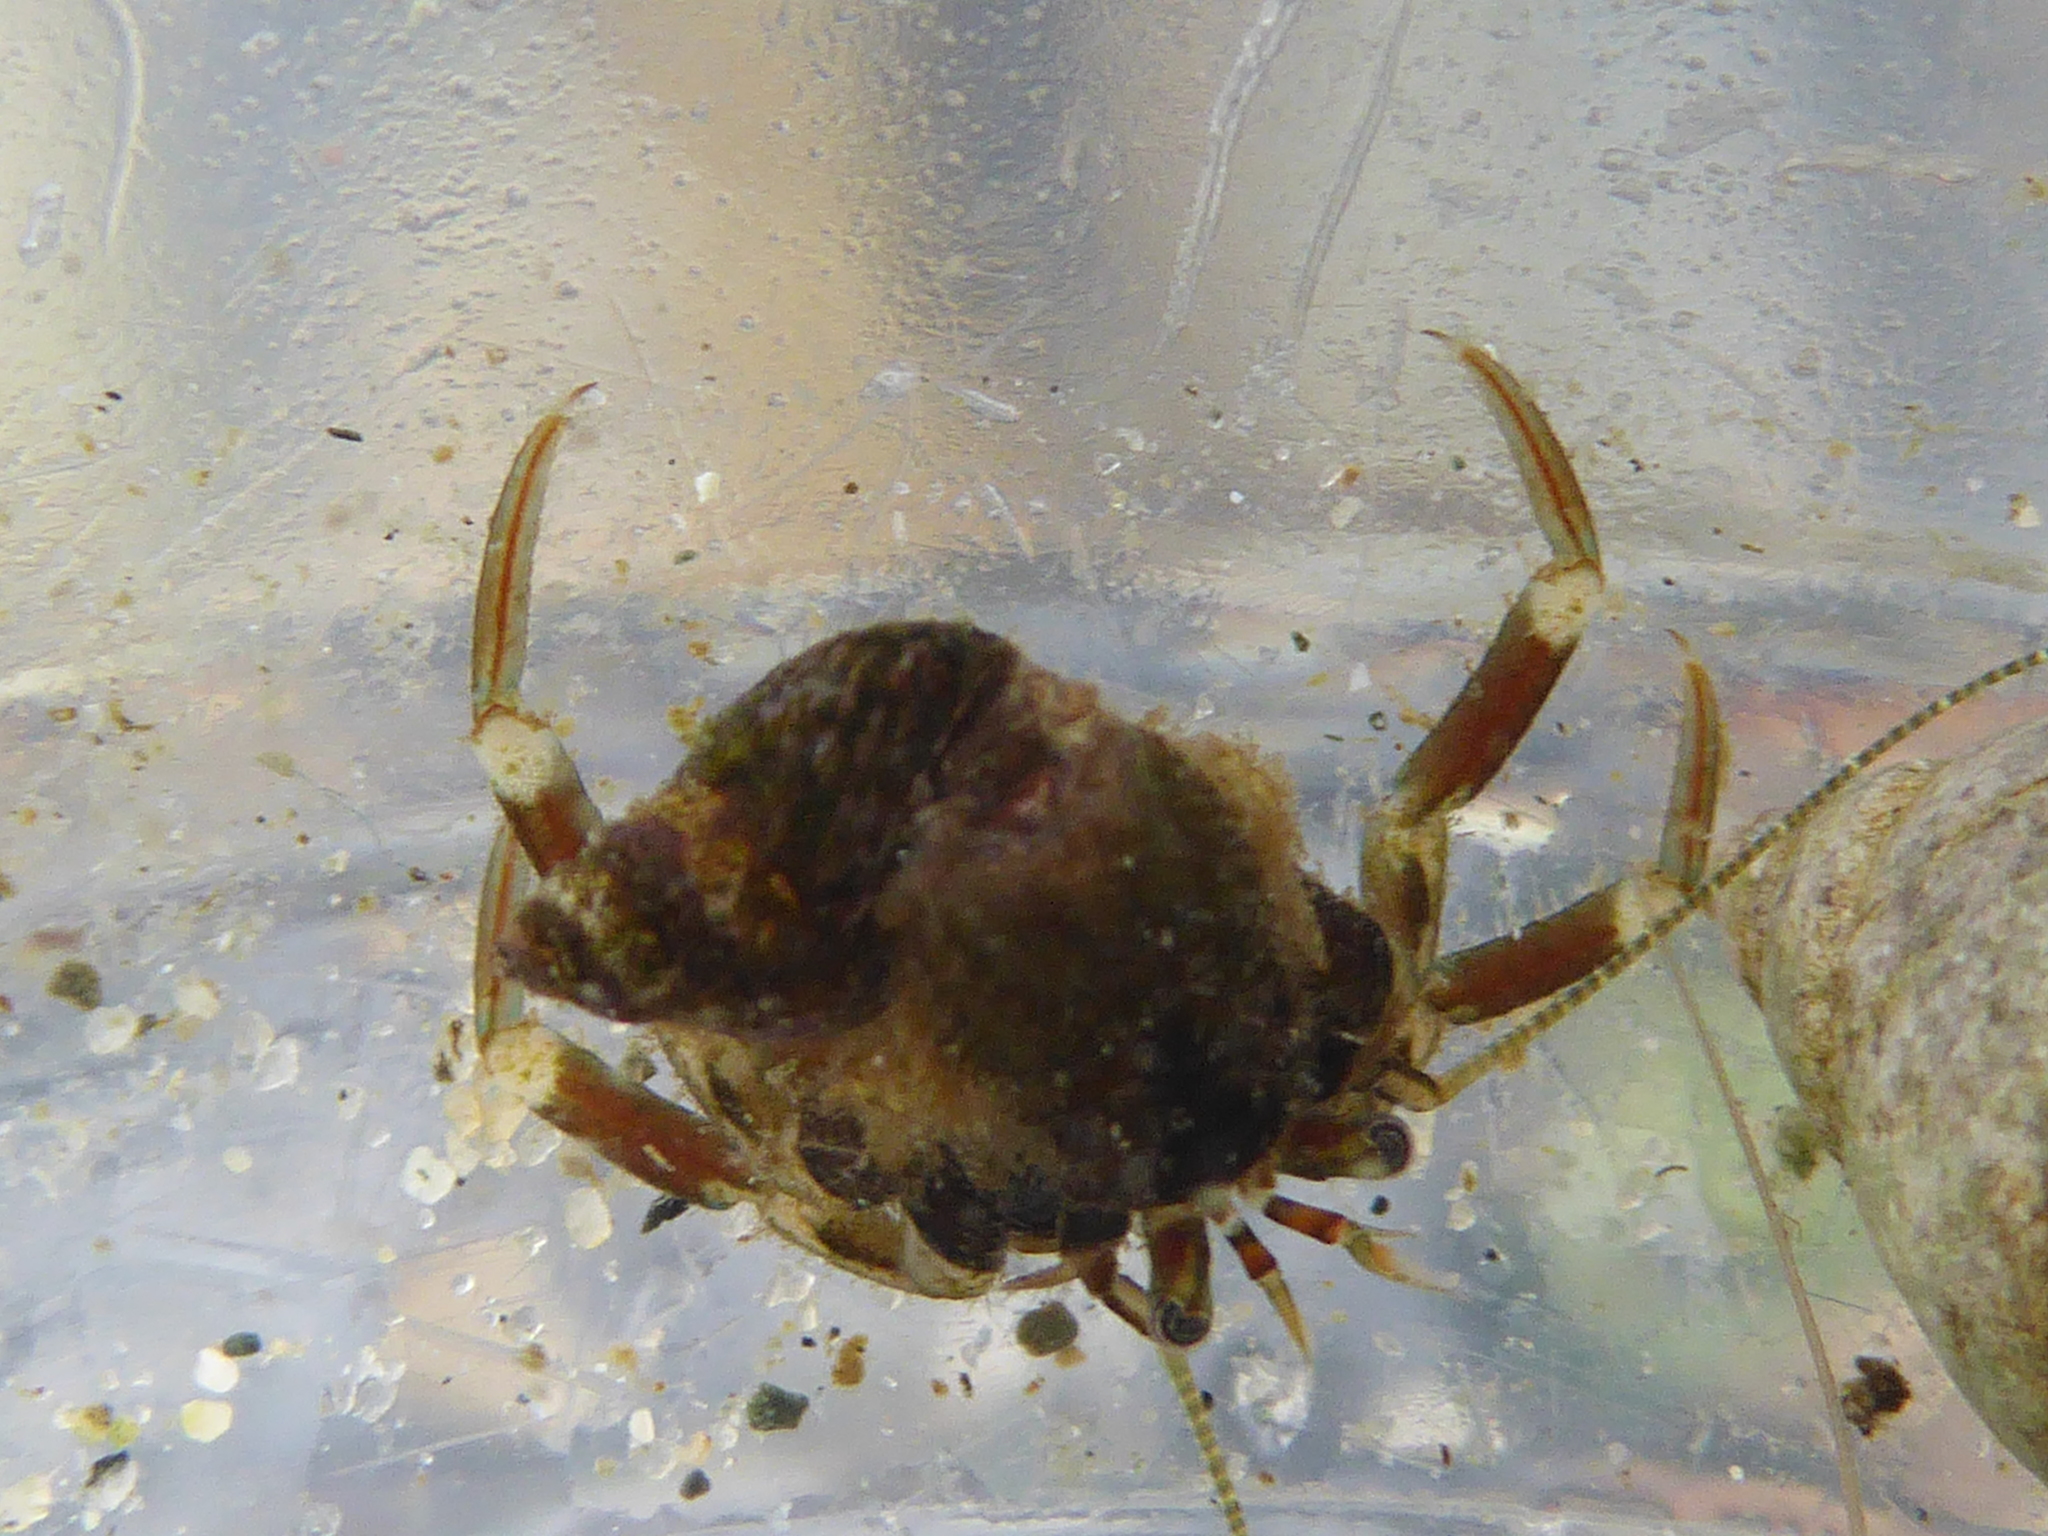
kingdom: Animalia
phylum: Arthropoda
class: Malacostraca
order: Decapoda
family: Paguridae
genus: Pagurus
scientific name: Pagurus hirsutiusculus
